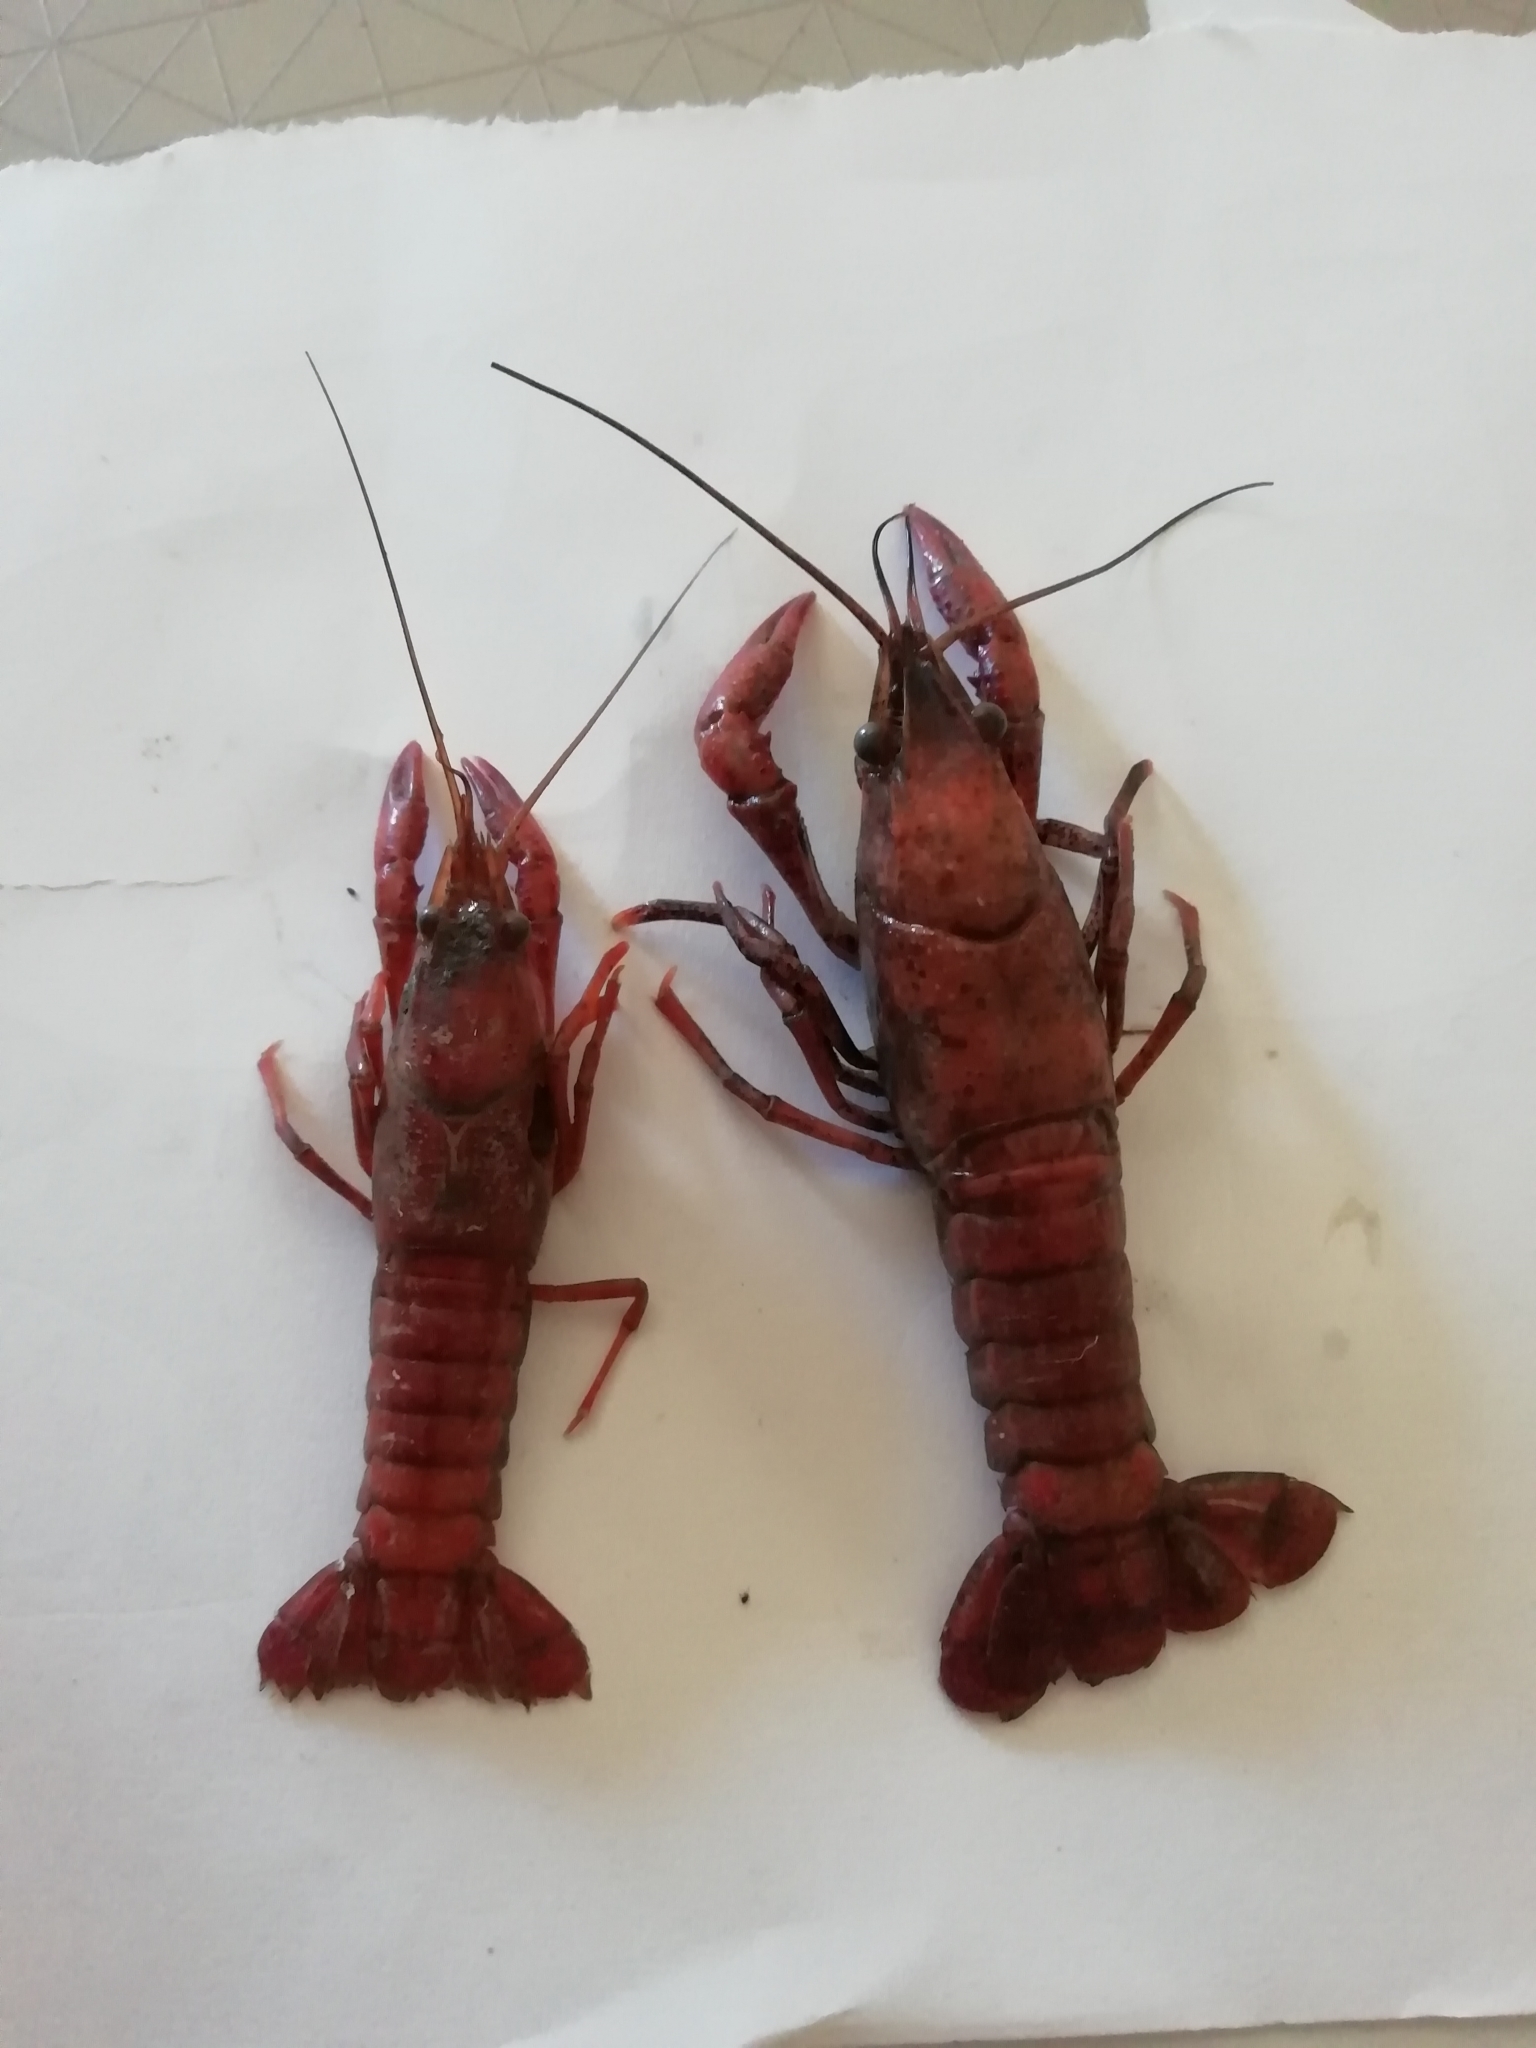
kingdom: Animalia
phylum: Arthropoda
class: Malacostraca
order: Decapoda
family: Cambaridae
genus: Procambarus
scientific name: Procambarus clarkii
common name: Red swamp crayfish
